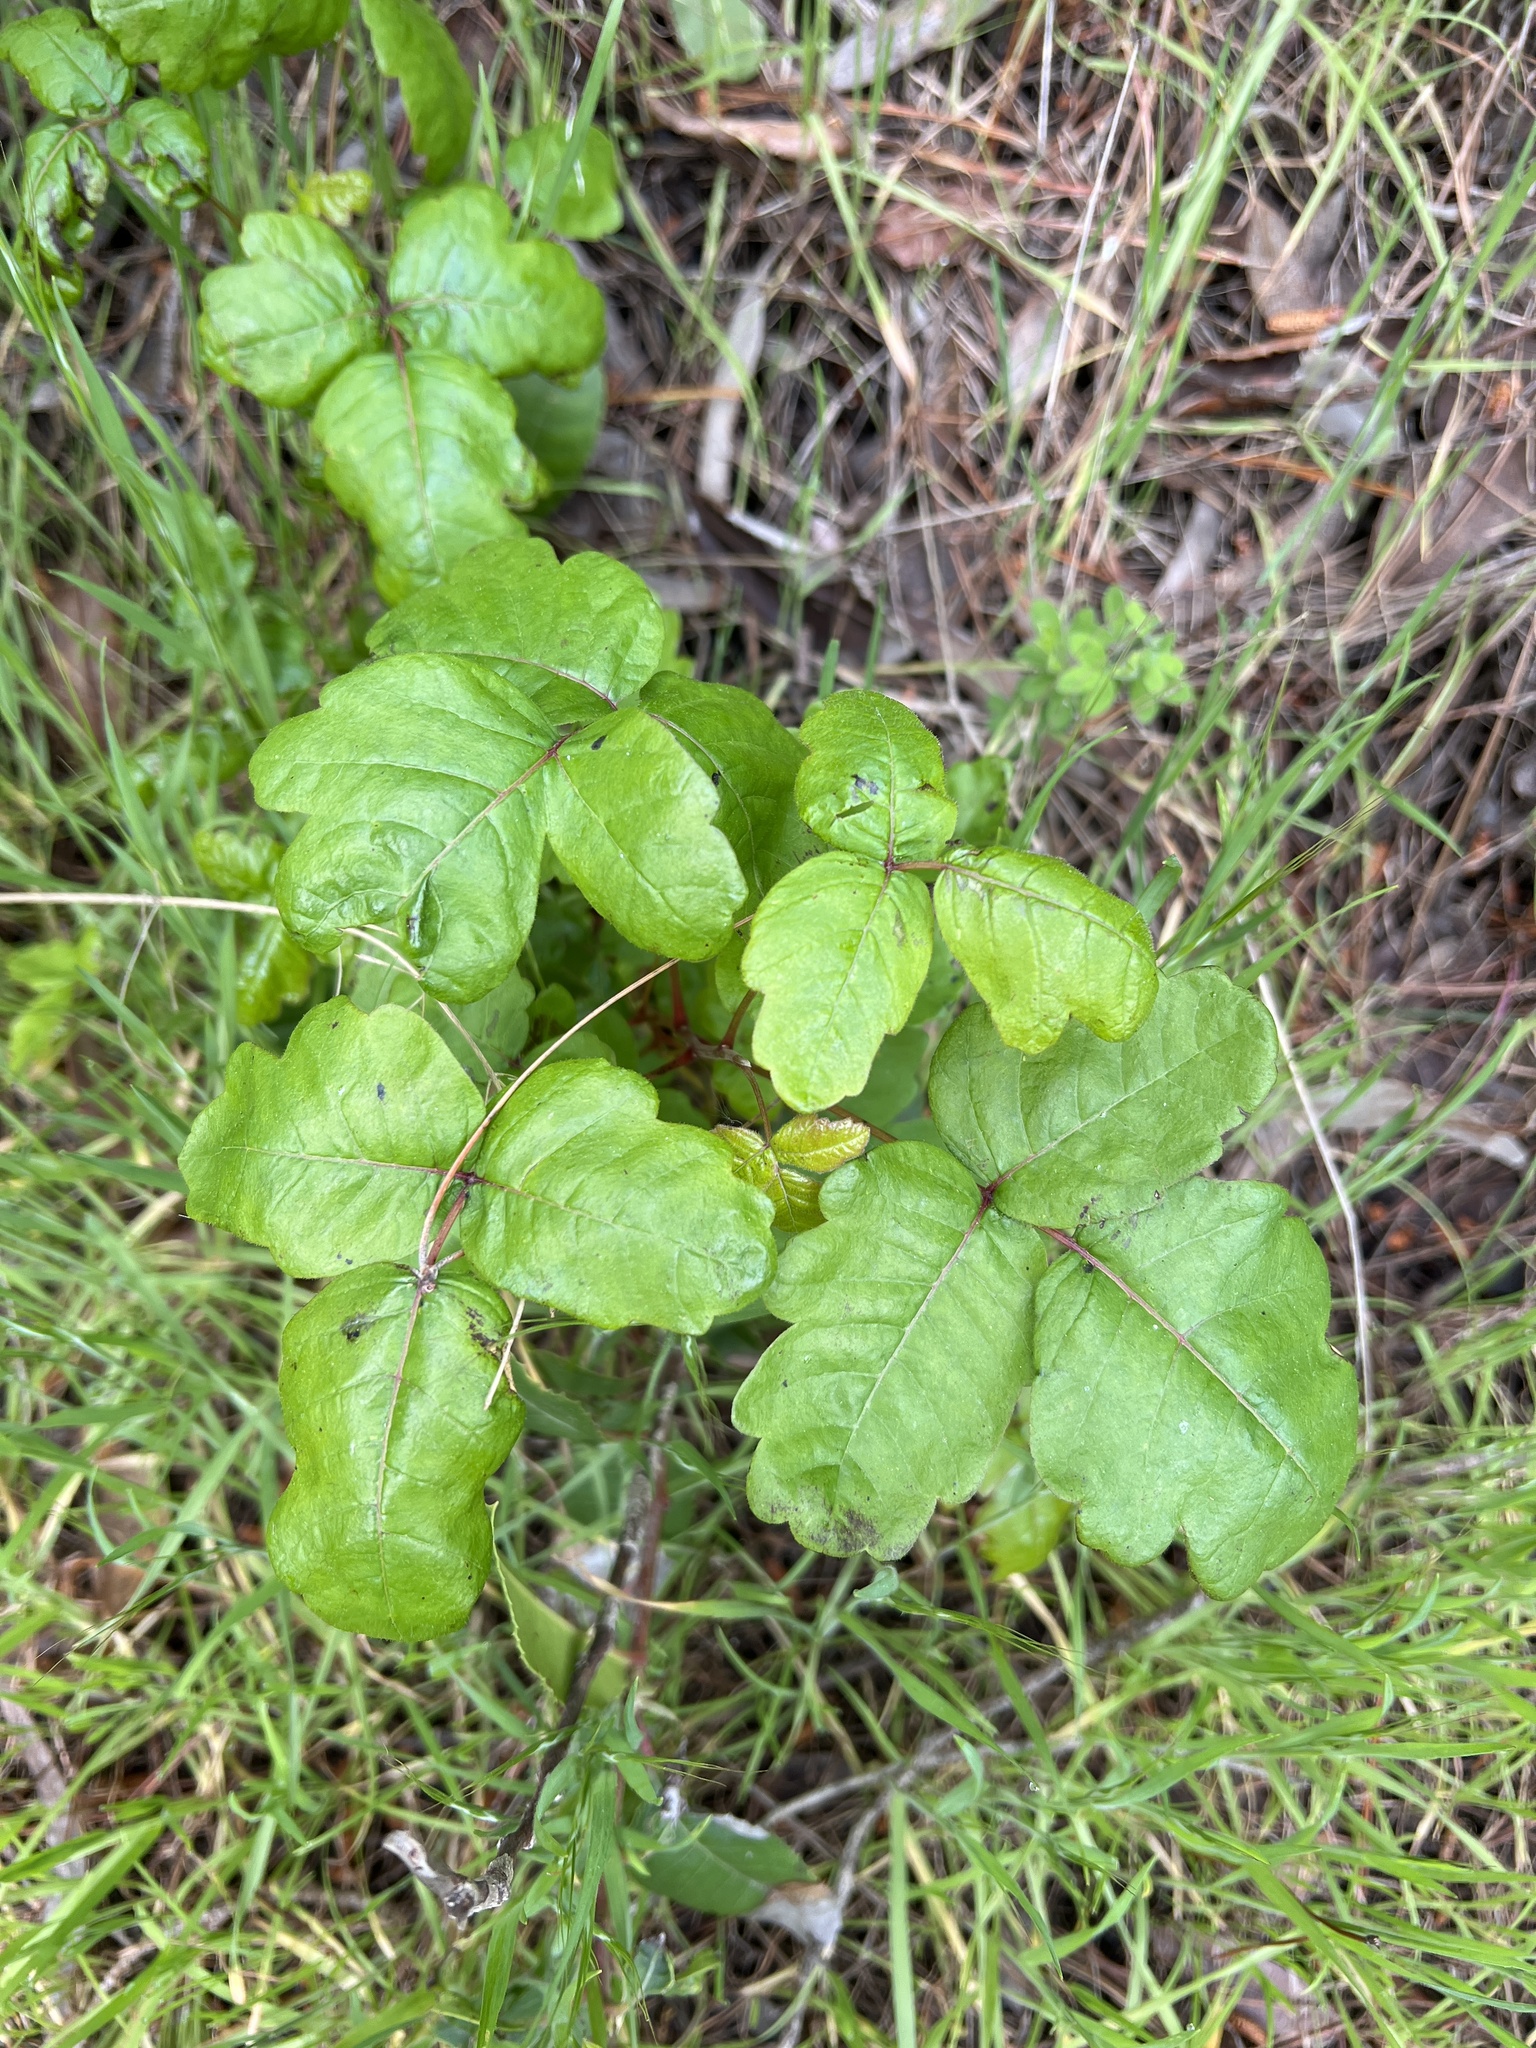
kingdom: Plantae
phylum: Tracheophyta
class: Magnoliopsida
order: Sapindales
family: Anacardiaceae
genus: Toxicodendron
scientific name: Toxicodendron diversilobum
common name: Pacific poison-oak
